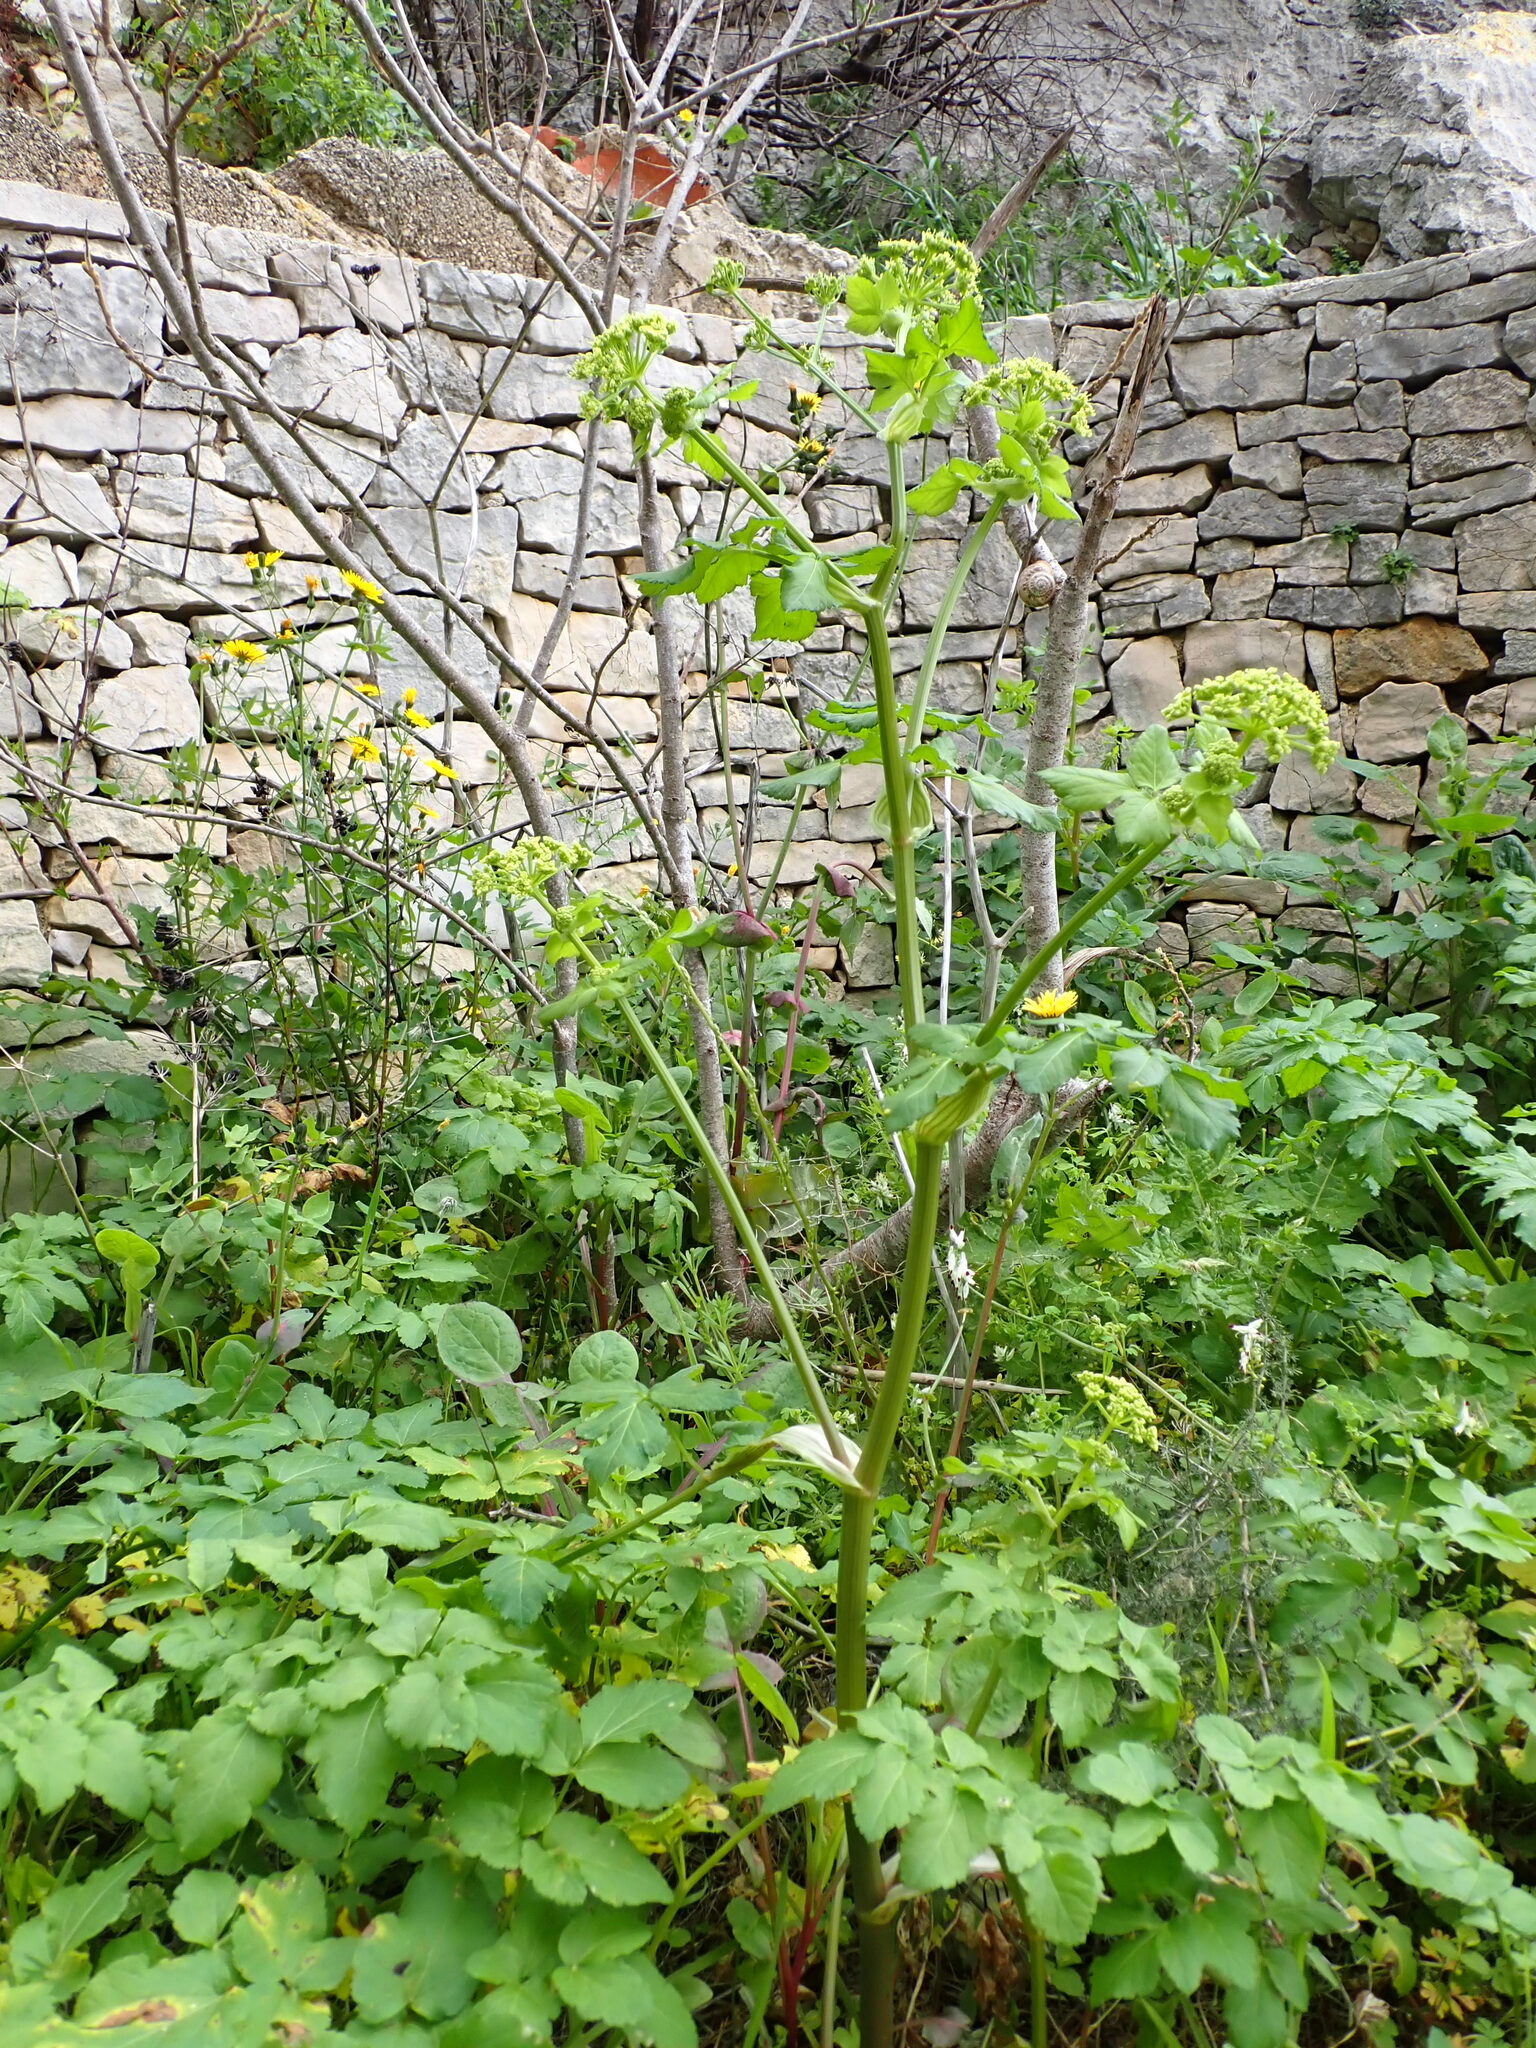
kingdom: Plantae
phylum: Tracheophyta
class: Magnoliopsida
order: Apiales
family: Apiaceae
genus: Smyrnium
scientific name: Smyrnium olusatrum
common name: Alexanders
